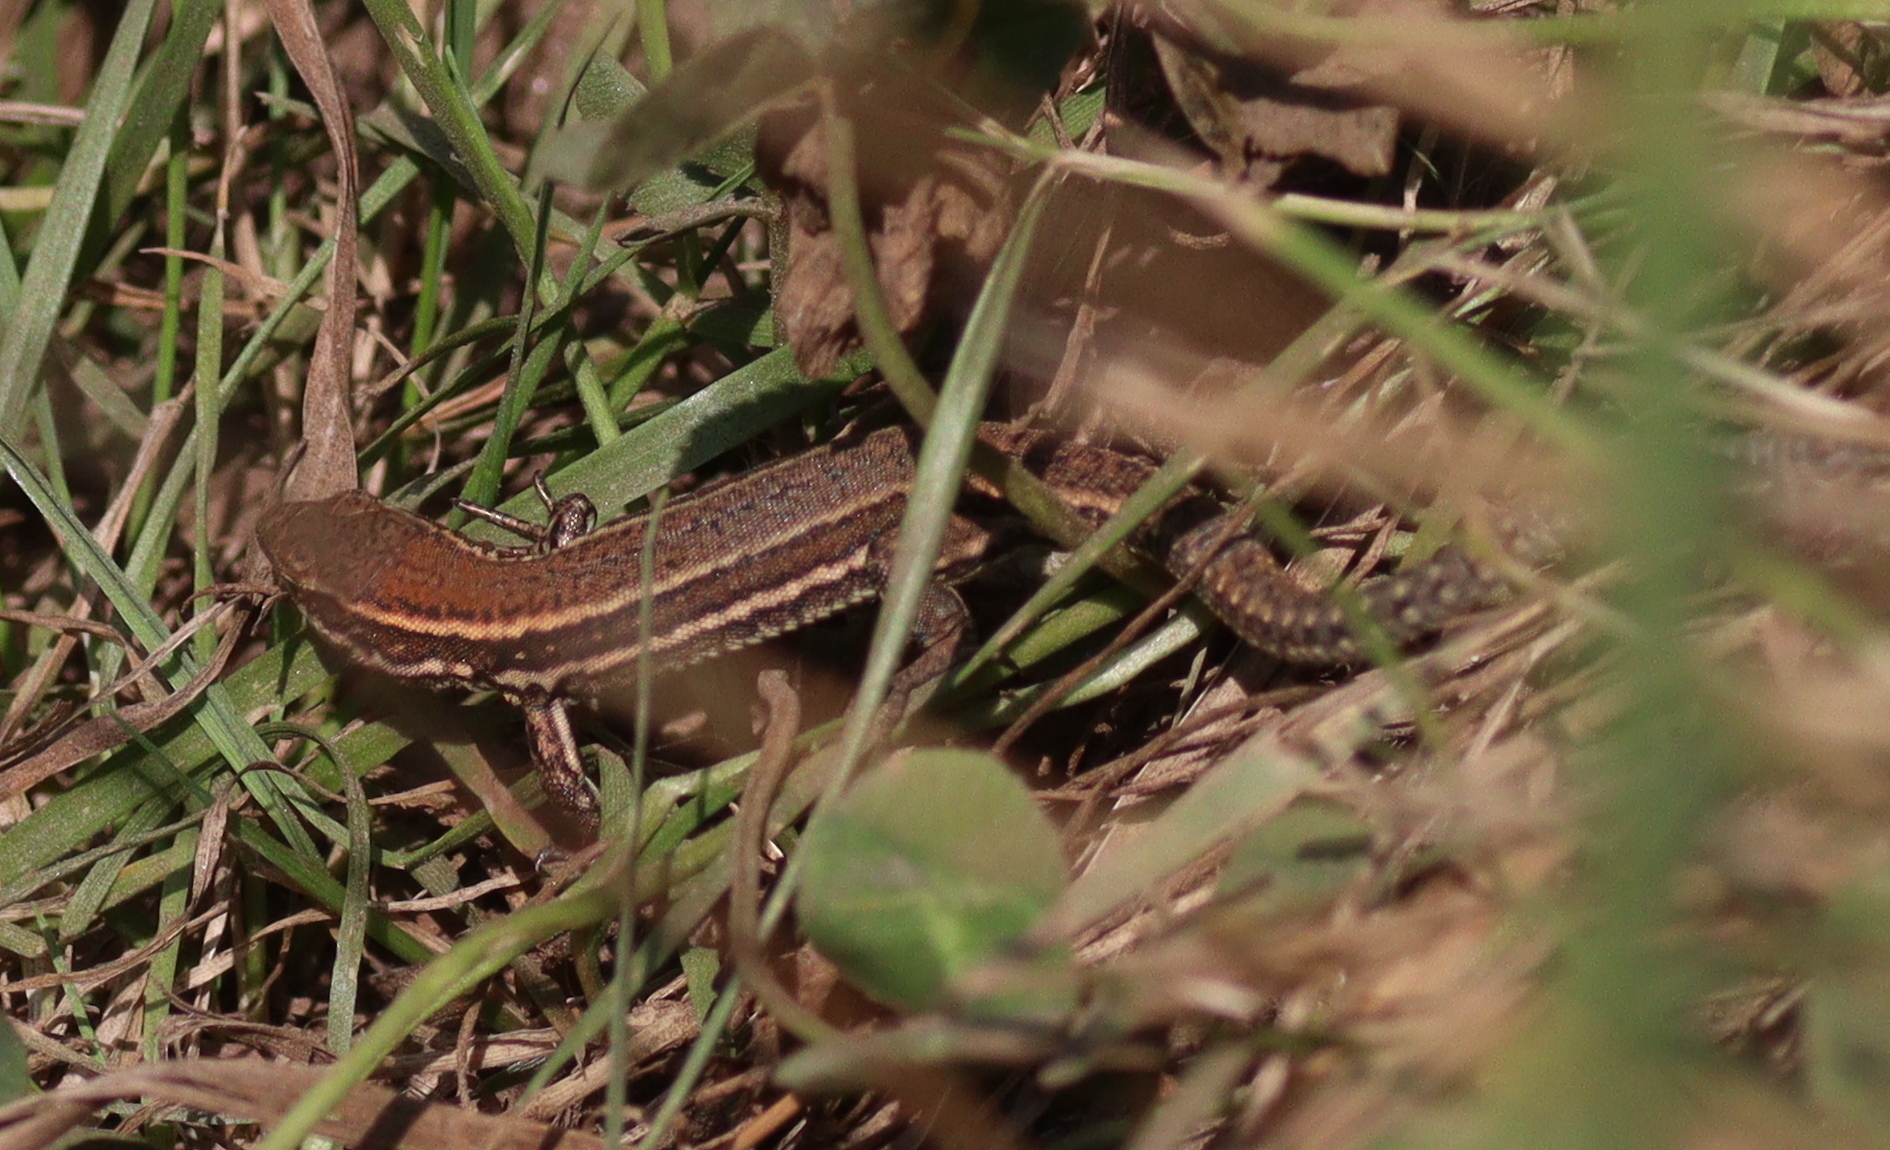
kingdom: Animalia
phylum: Chordata
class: Squamata
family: Lacertidae
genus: Podarcis
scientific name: Podarcis muralis
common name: Common wall lizard
